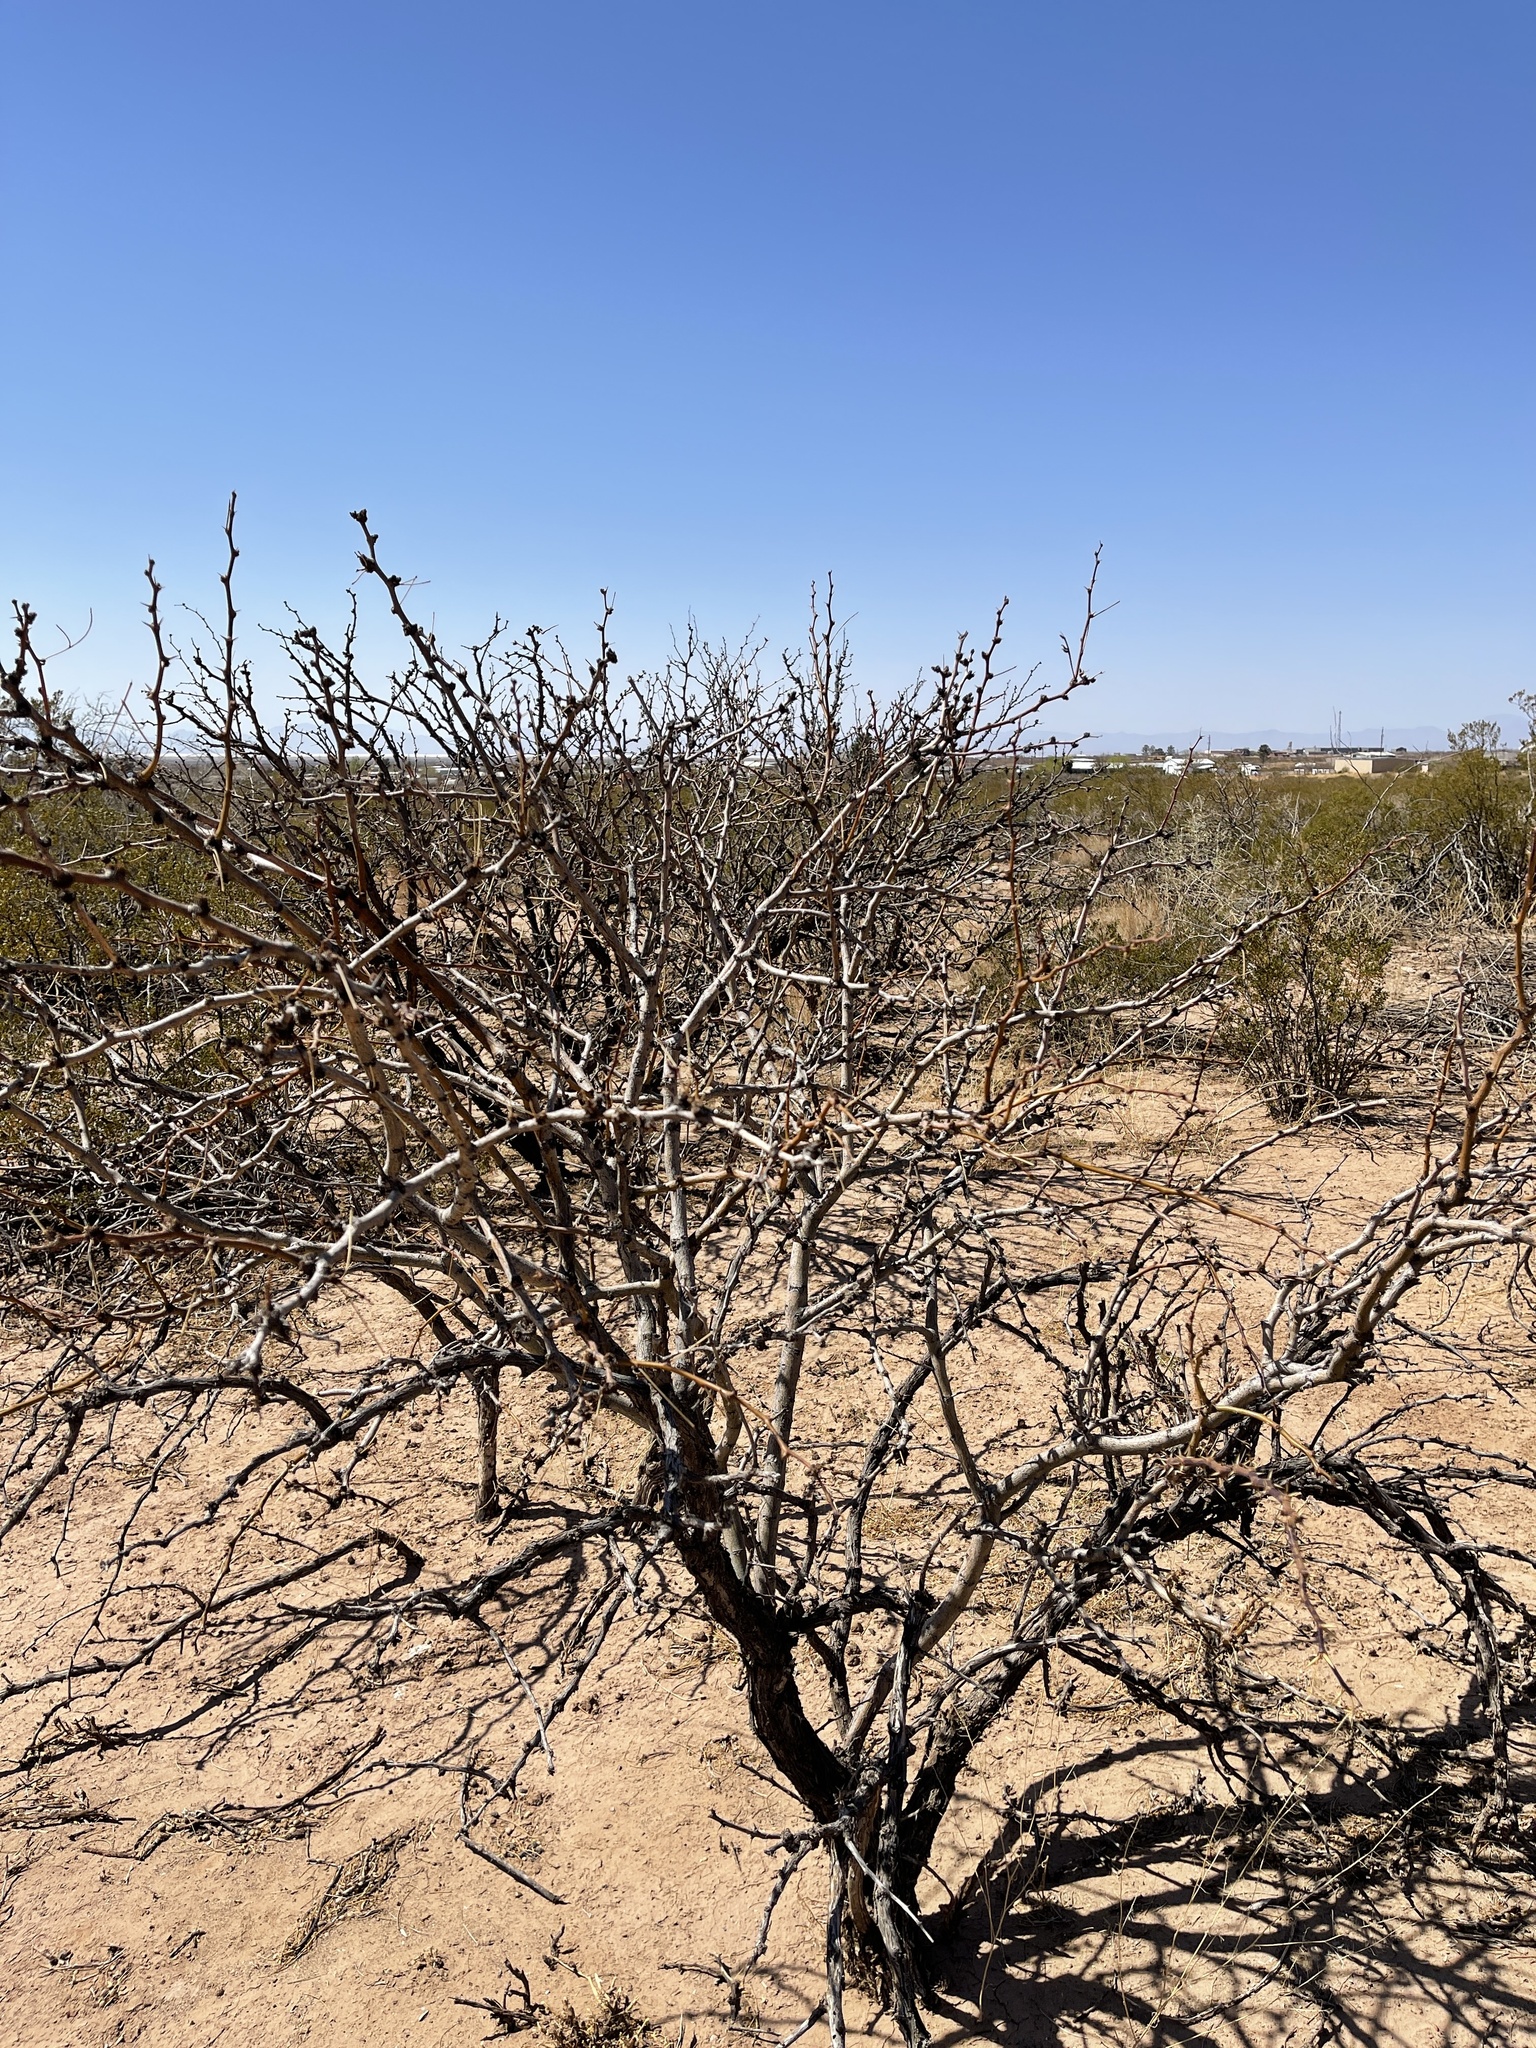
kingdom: Plantae
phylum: Tracheophyta
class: Magnoliopsida
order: Fabales
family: Fabaceae
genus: Prosopis
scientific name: Prosopis glandulosa
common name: Honey mesquite
